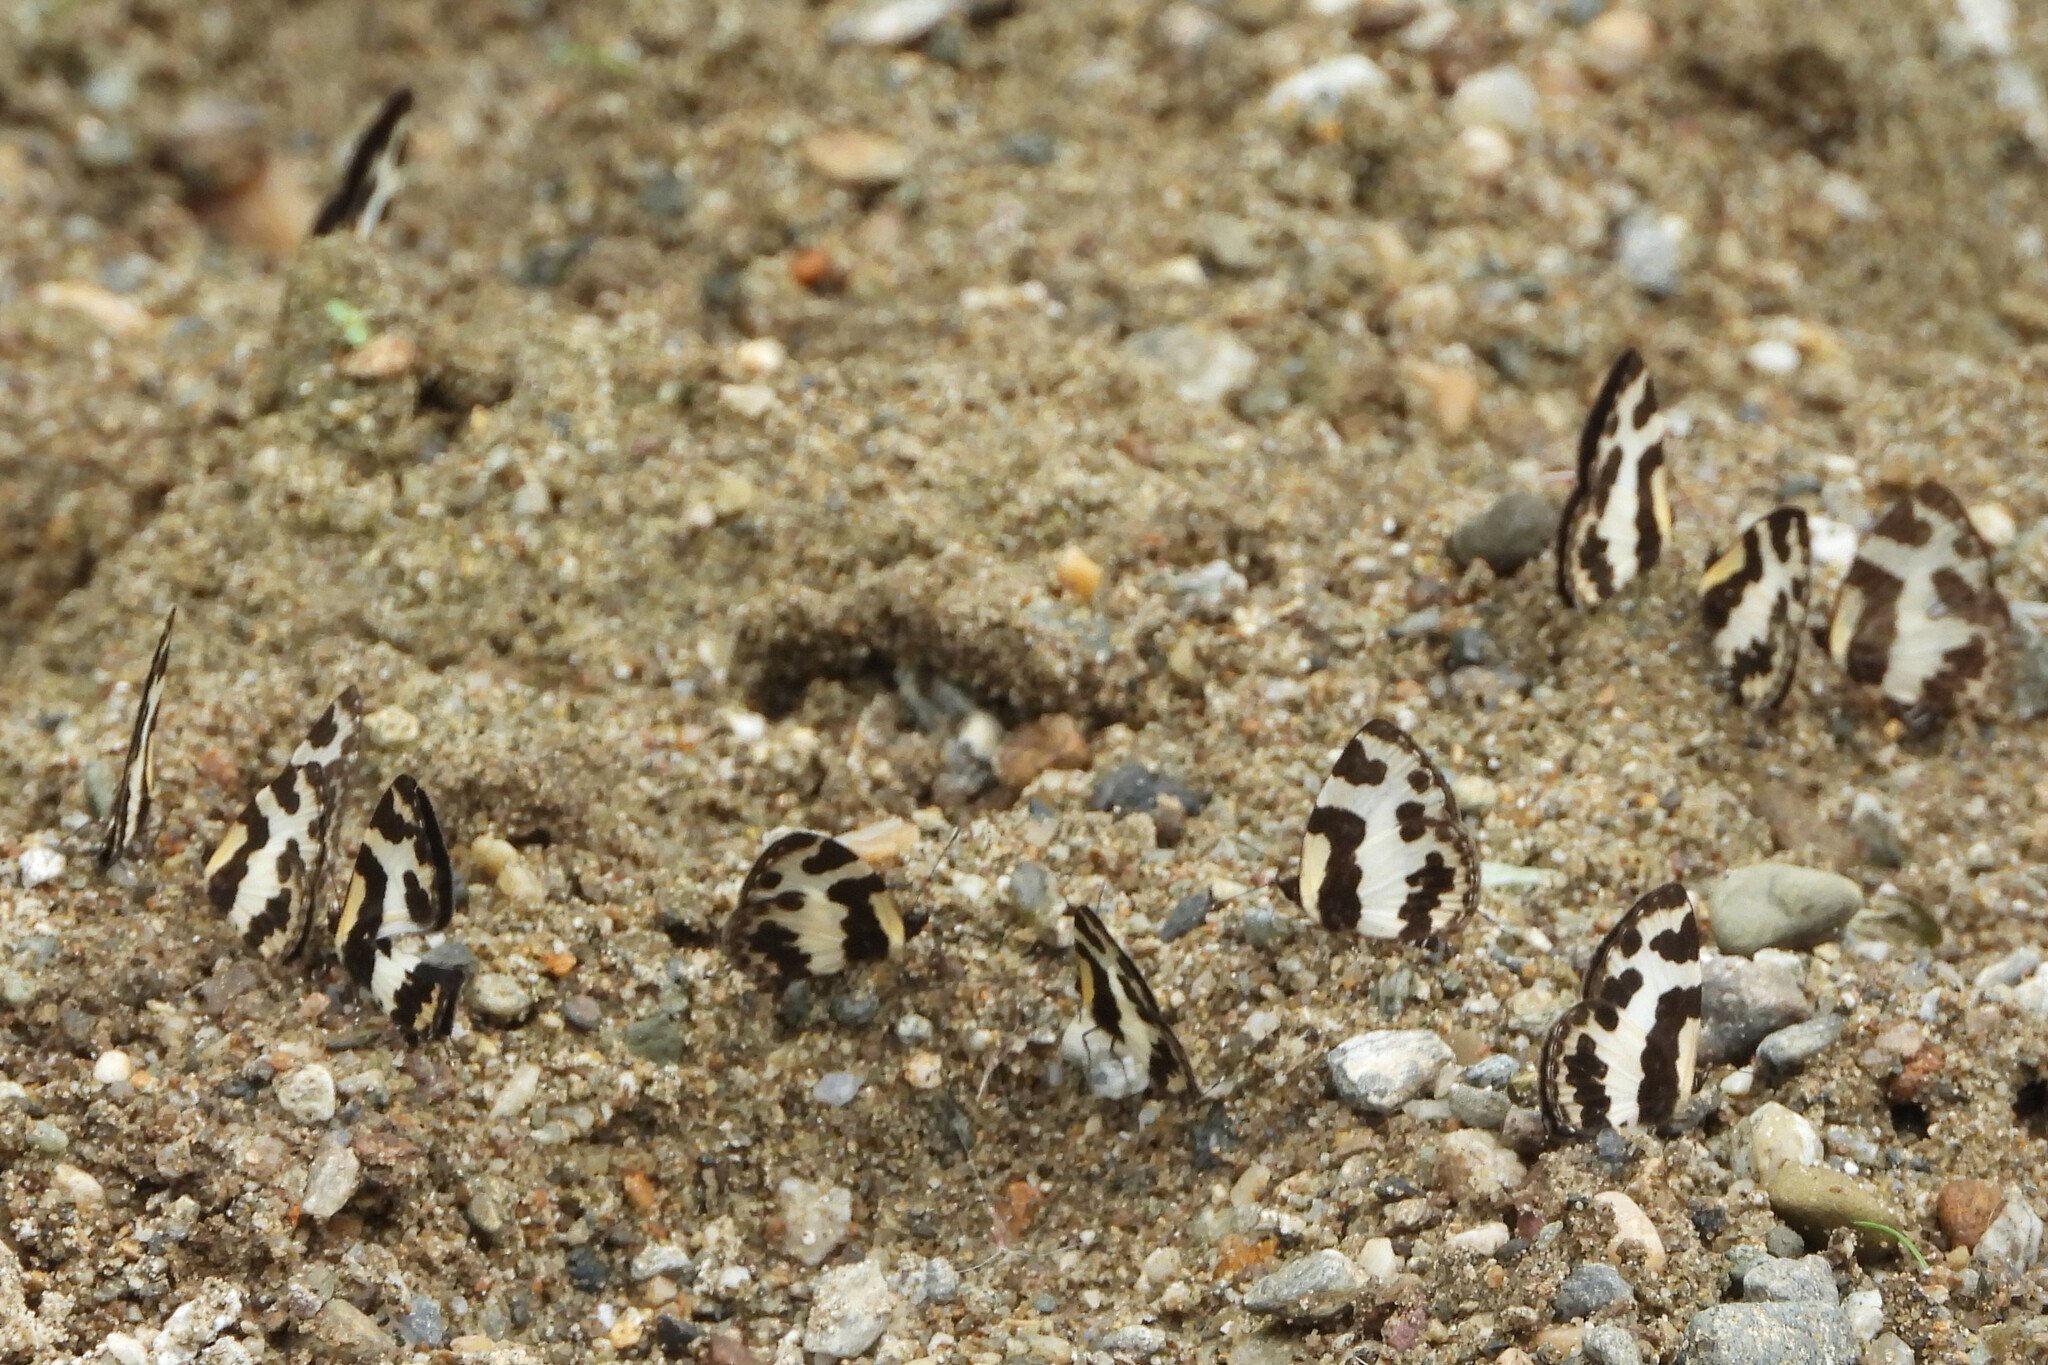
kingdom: Animalia
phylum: Arthropoda
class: Insecta
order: Lepidoptera
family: Lycaenidae
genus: Caleta
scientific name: Caleta elna
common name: Elbowed pierrot
